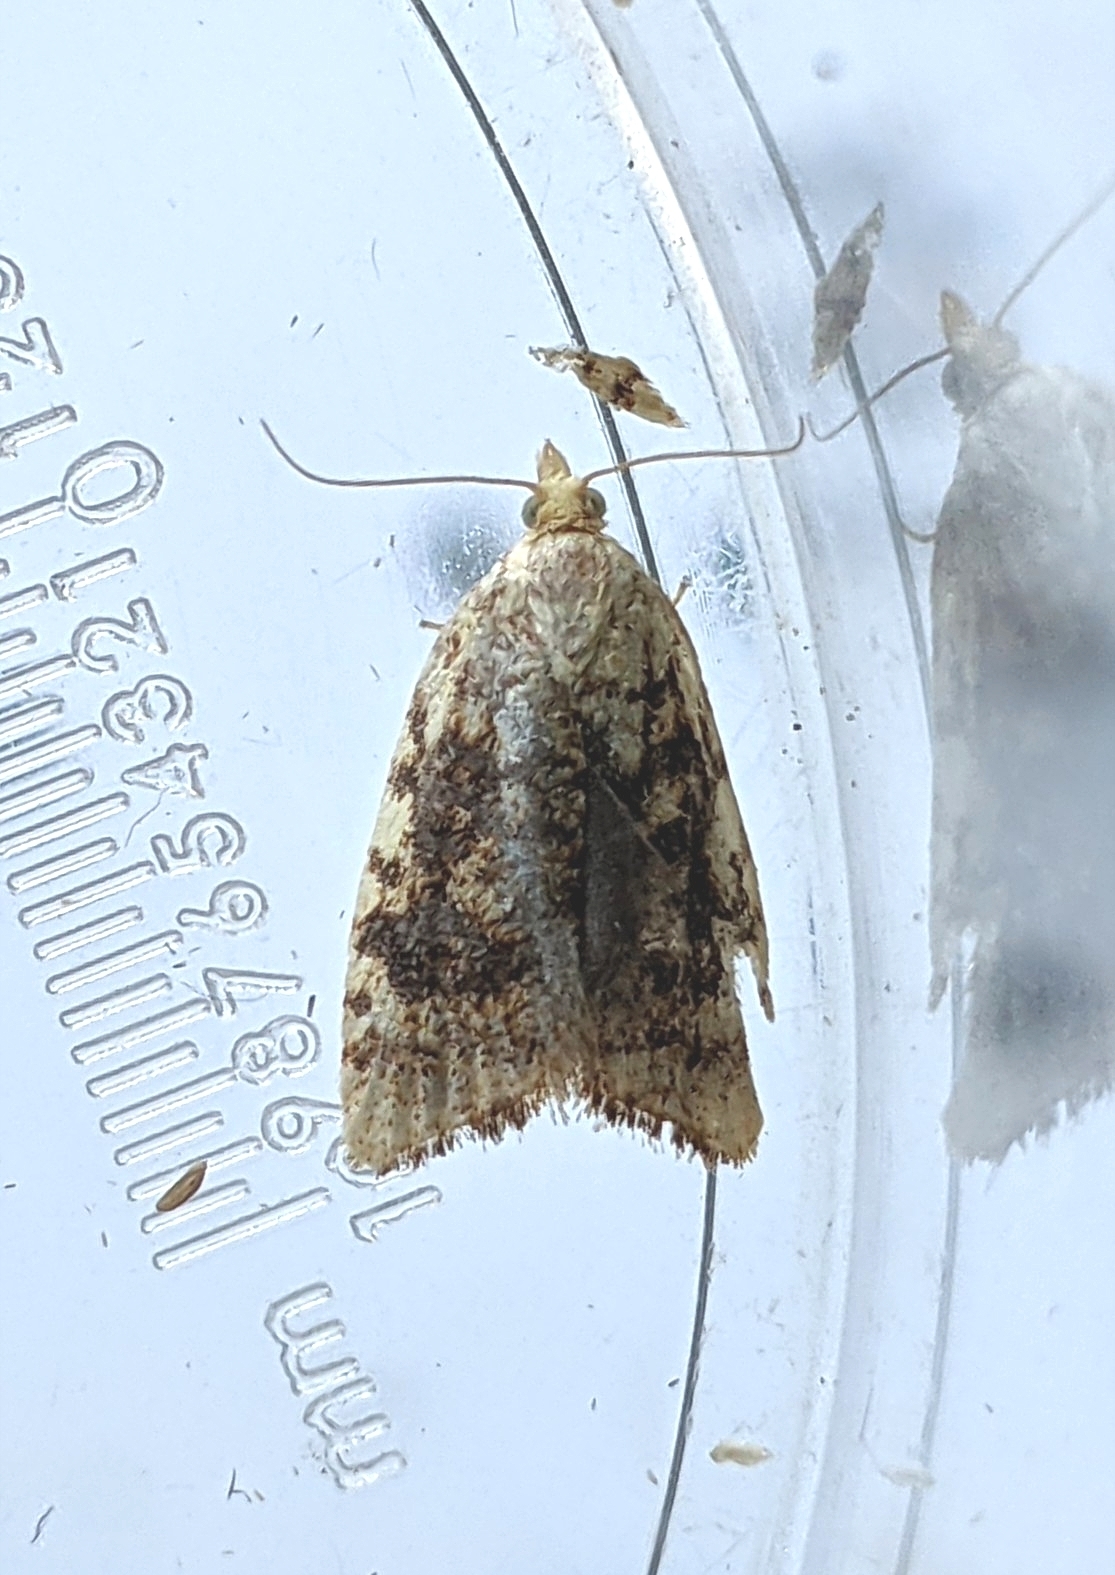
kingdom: Animalia
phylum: Arthropoda
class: Insecta
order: Lepidoptera
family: Tortricidae
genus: Aleimma
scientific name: Aleimma loeflingiana
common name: Yellow oak button
